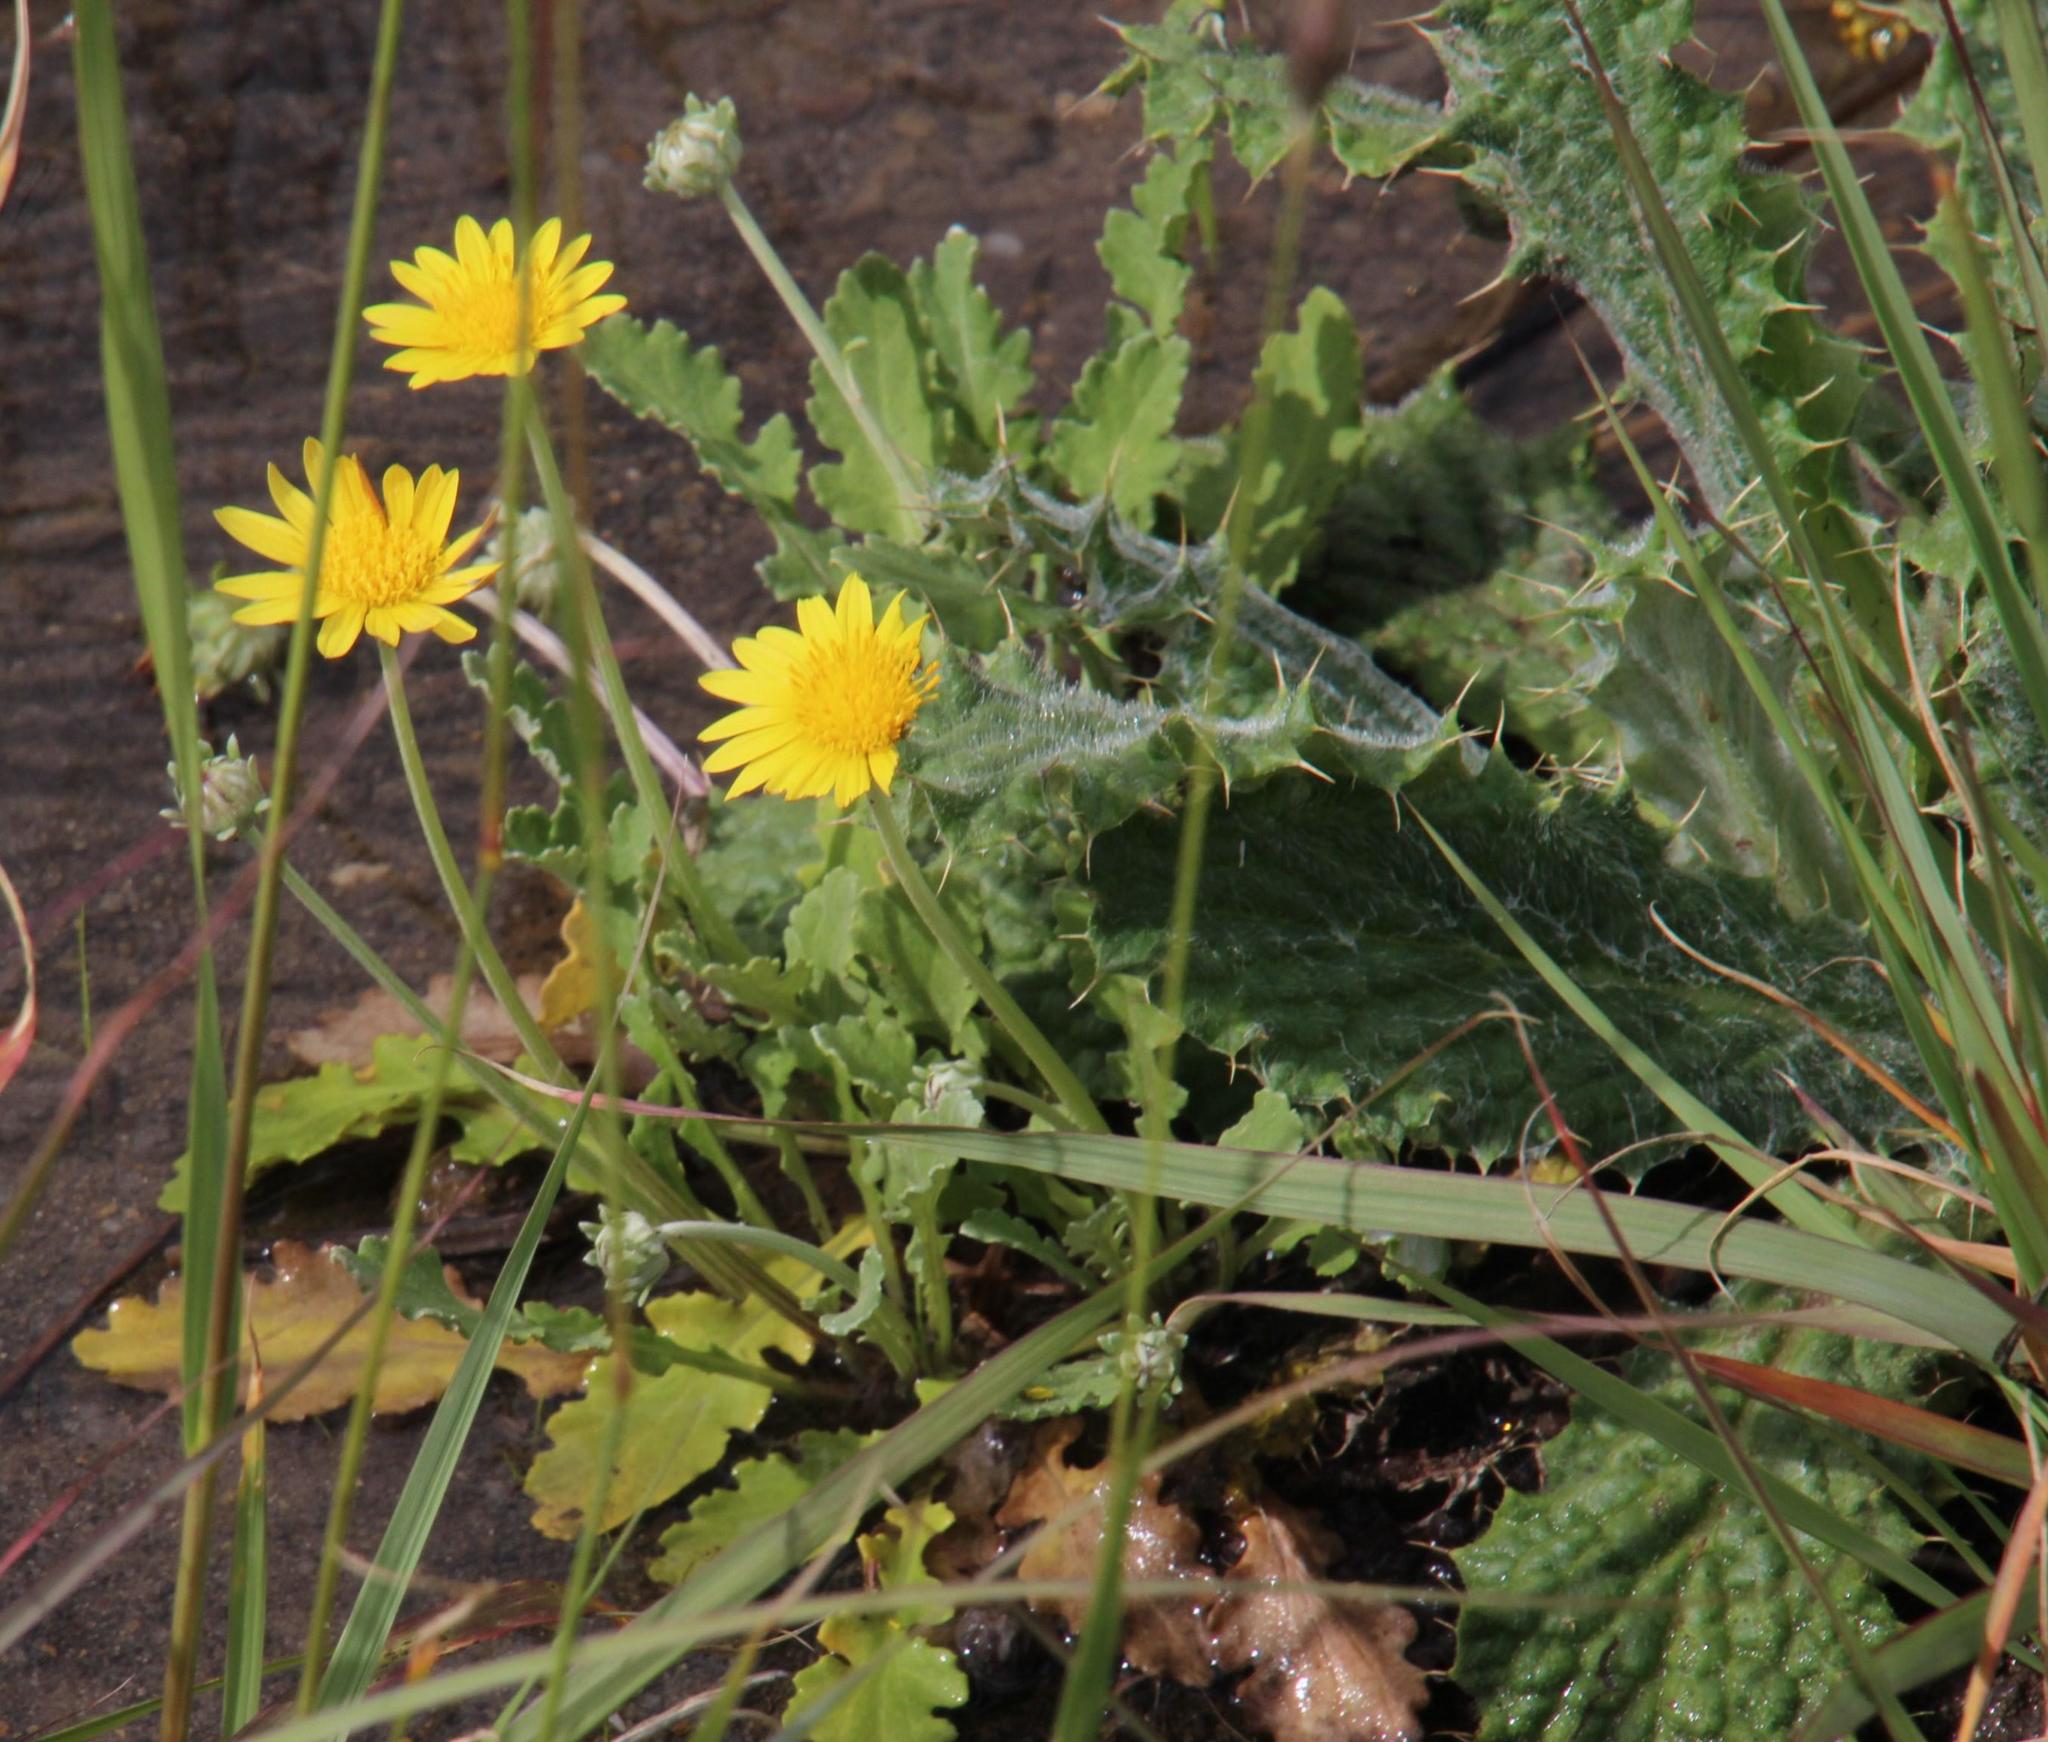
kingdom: Plantae
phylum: Tracheophyta
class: Magnoliopsida
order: Asterales
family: Asteraceae
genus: Arctotis
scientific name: Arctotis arctotoides
